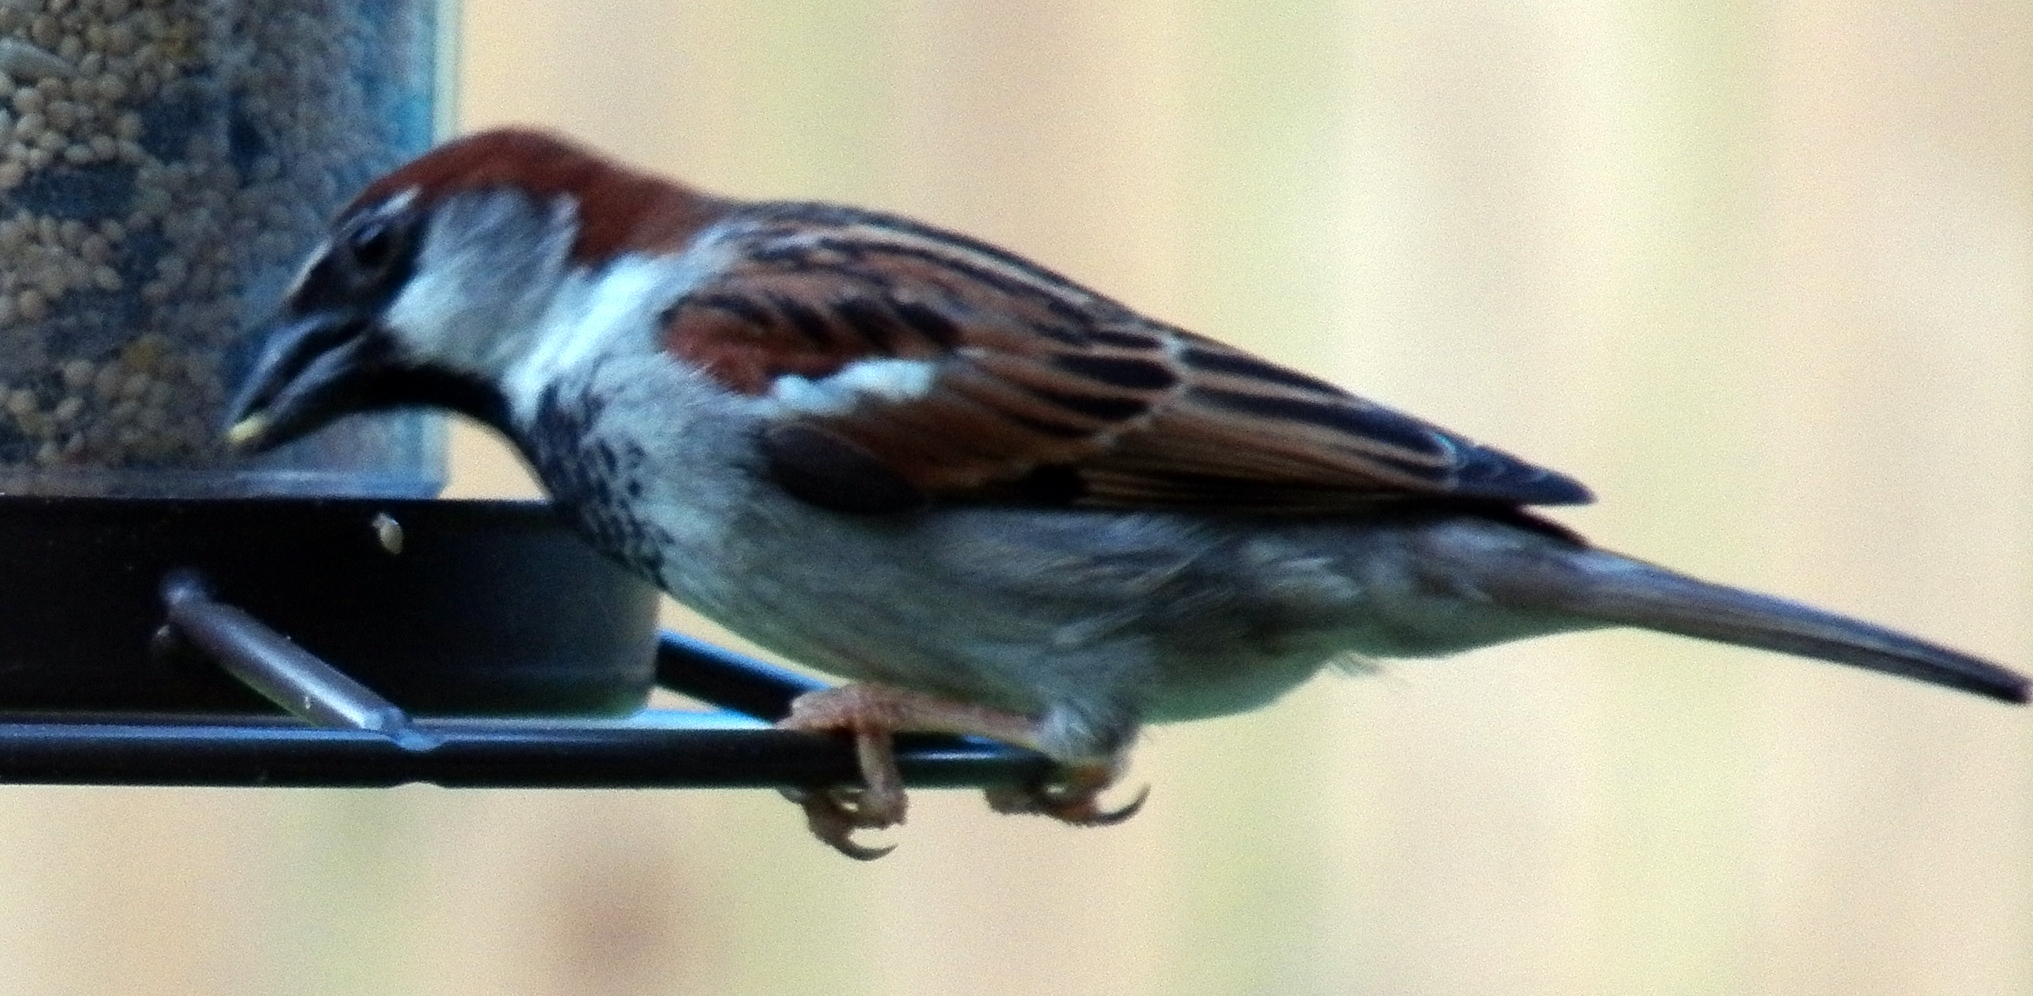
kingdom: Animalia
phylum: Chordata
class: Aves
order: Passeriformes
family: Passeridae
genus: Passer
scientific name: Passer domesticus
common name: House sparrow
